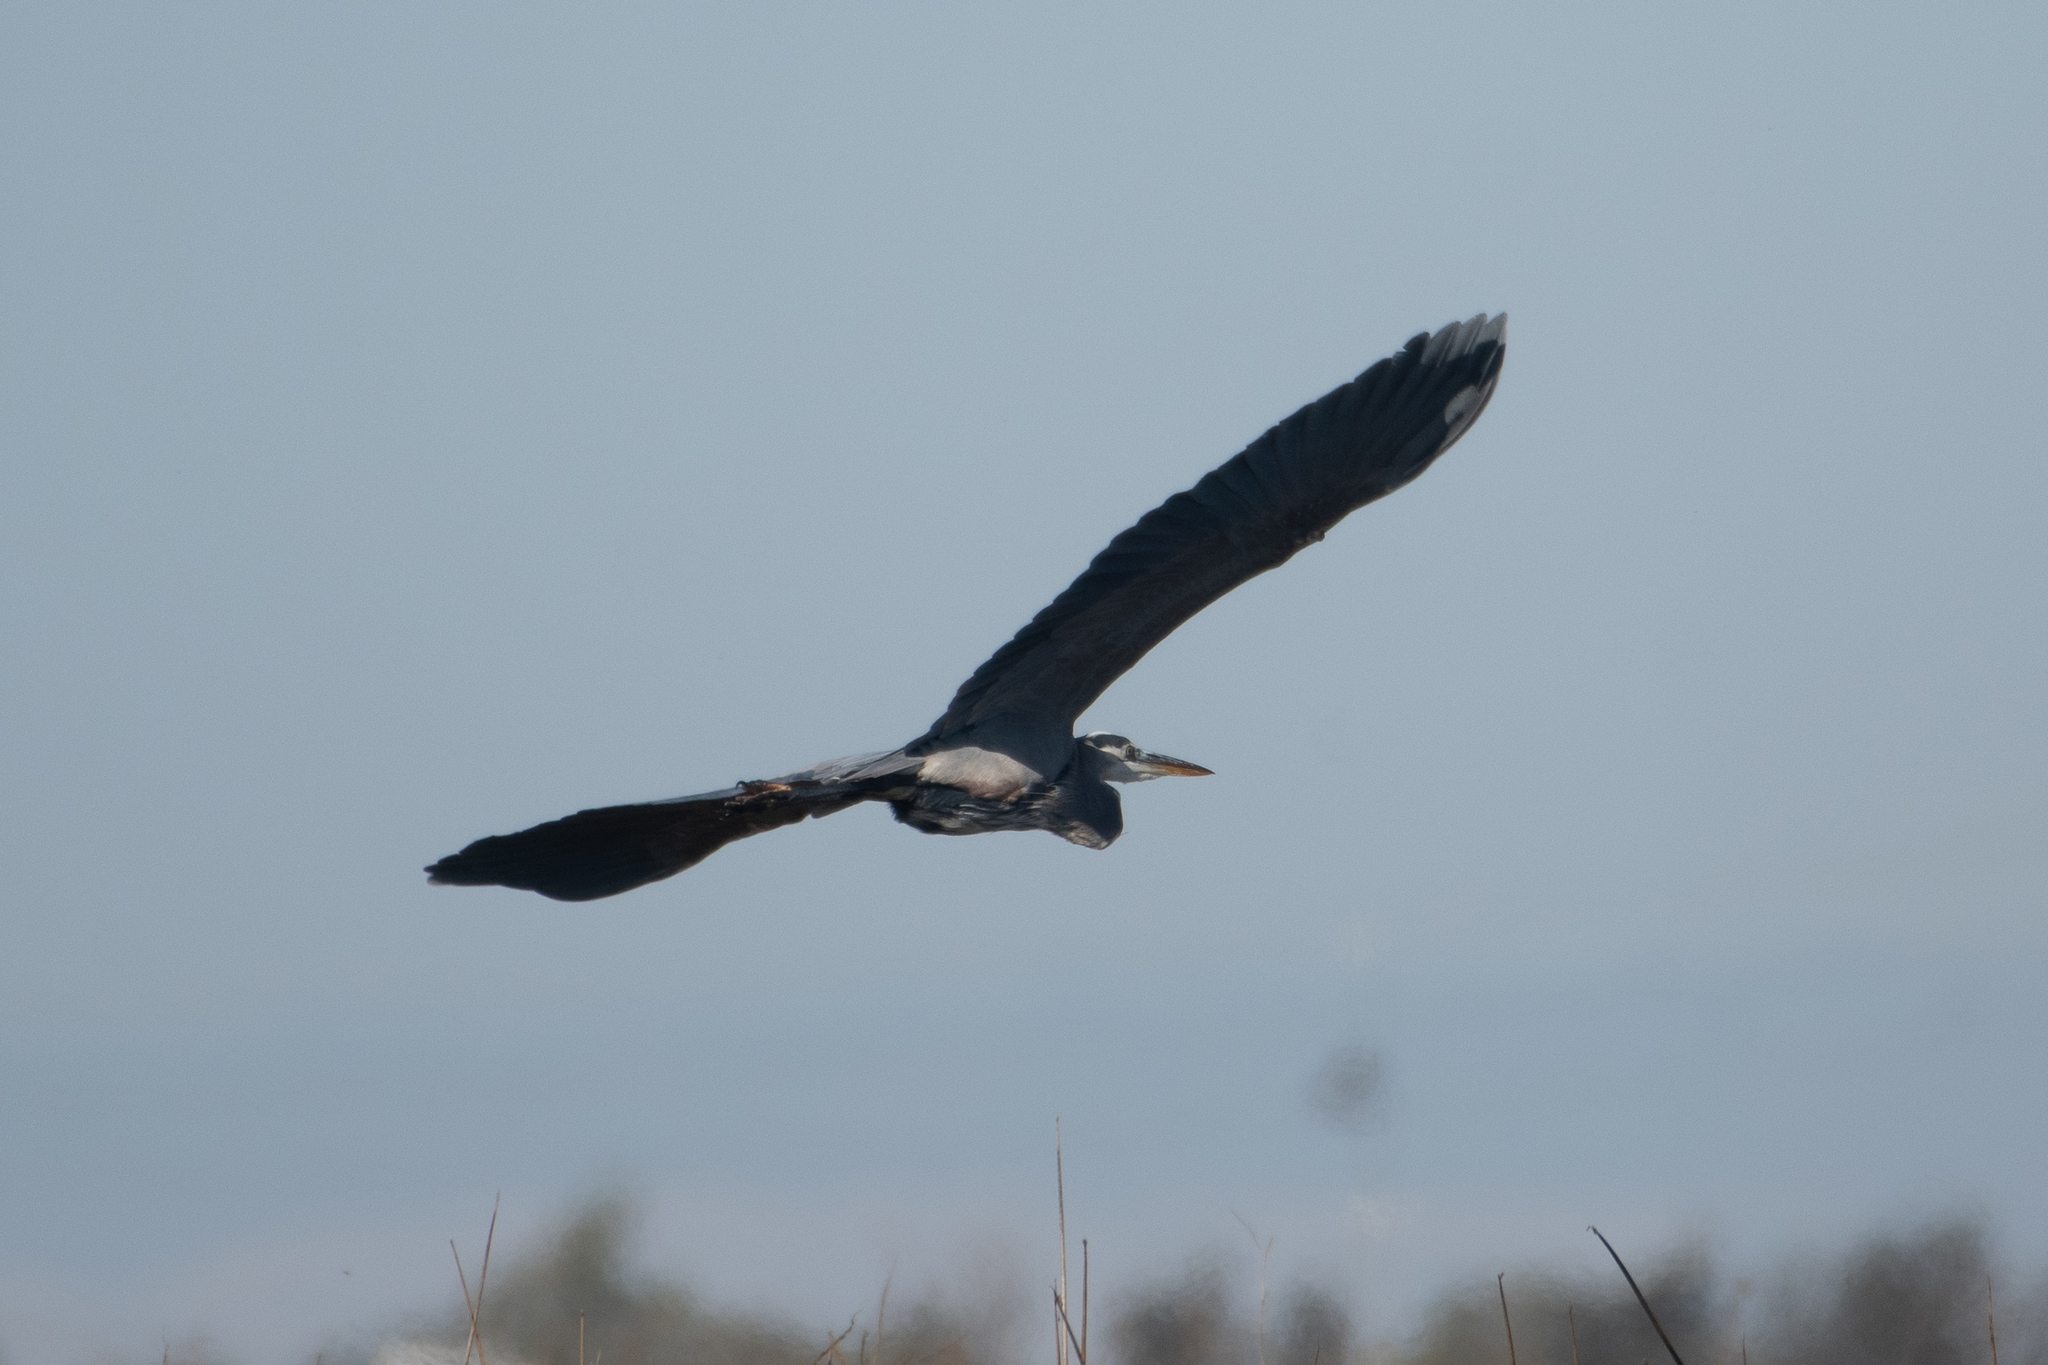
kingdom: Animalia
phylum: Chordata
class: Aves
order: Pelecaniformes
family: Ardeidae
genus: Ardea
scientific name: Ardea herodias
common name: Great blue heron
